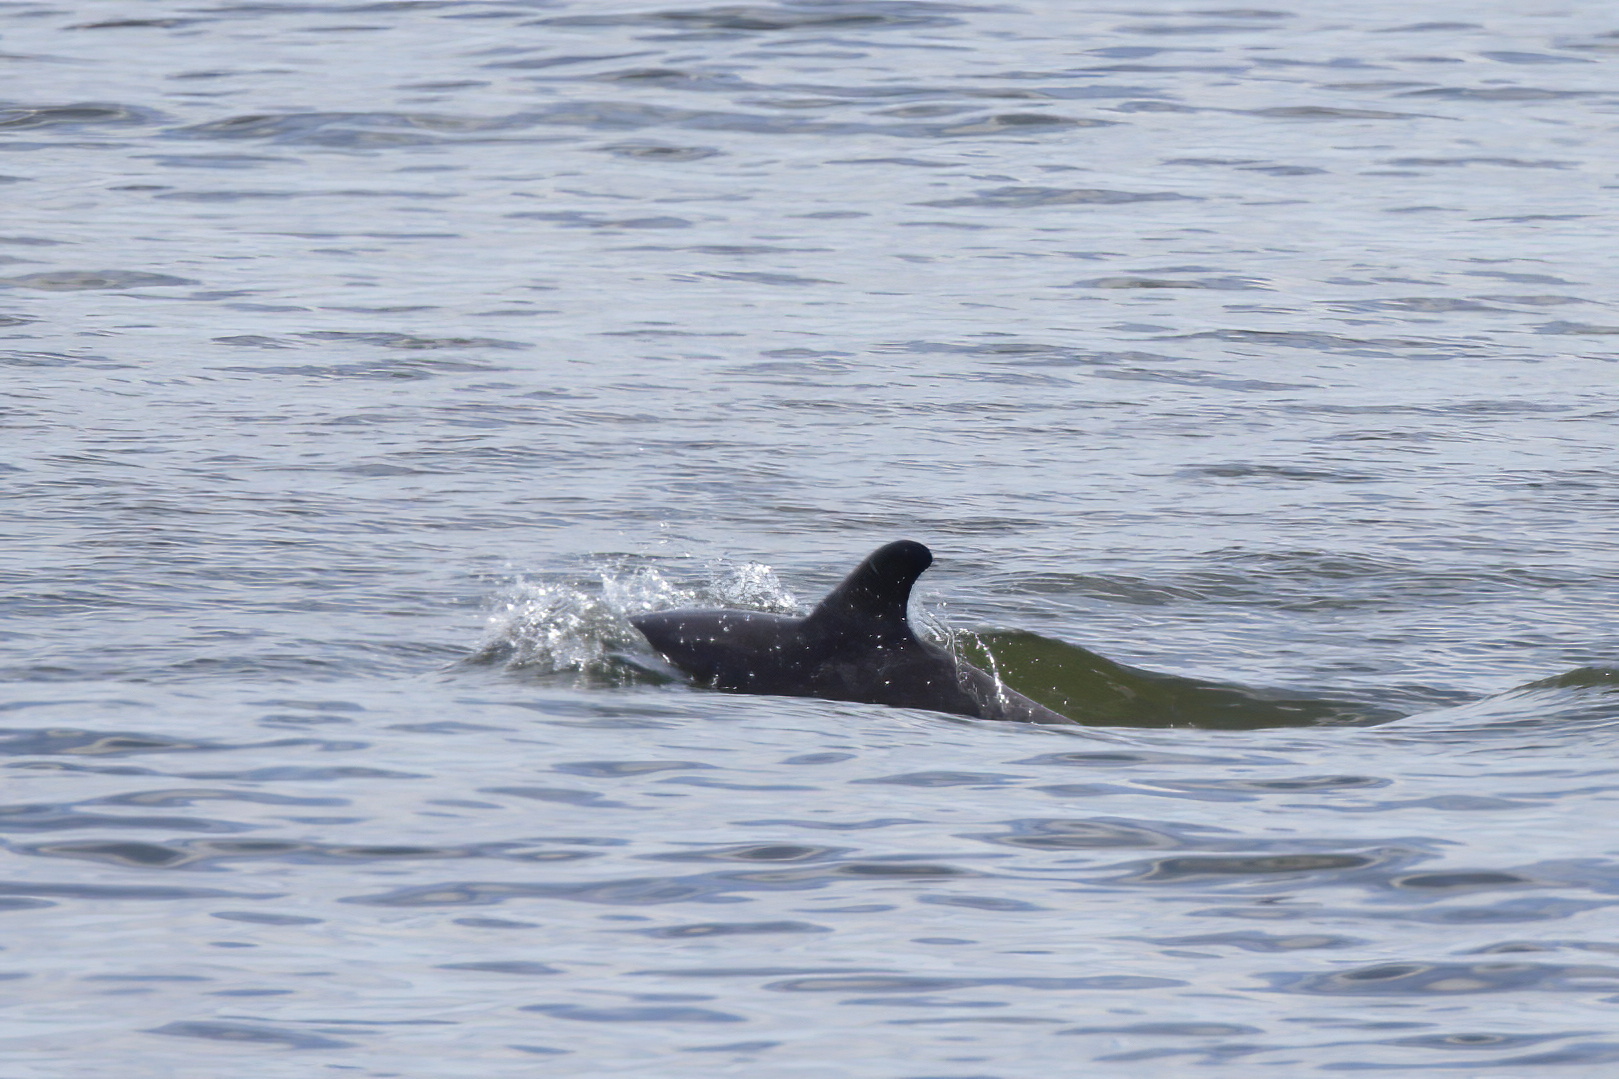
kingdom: Animalia
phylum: Chordata
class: Mammalia
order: Cetacea
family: Delphinidae
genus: Tursiops
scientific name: Tursiops truncatus
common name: Bottlenose dolphin
